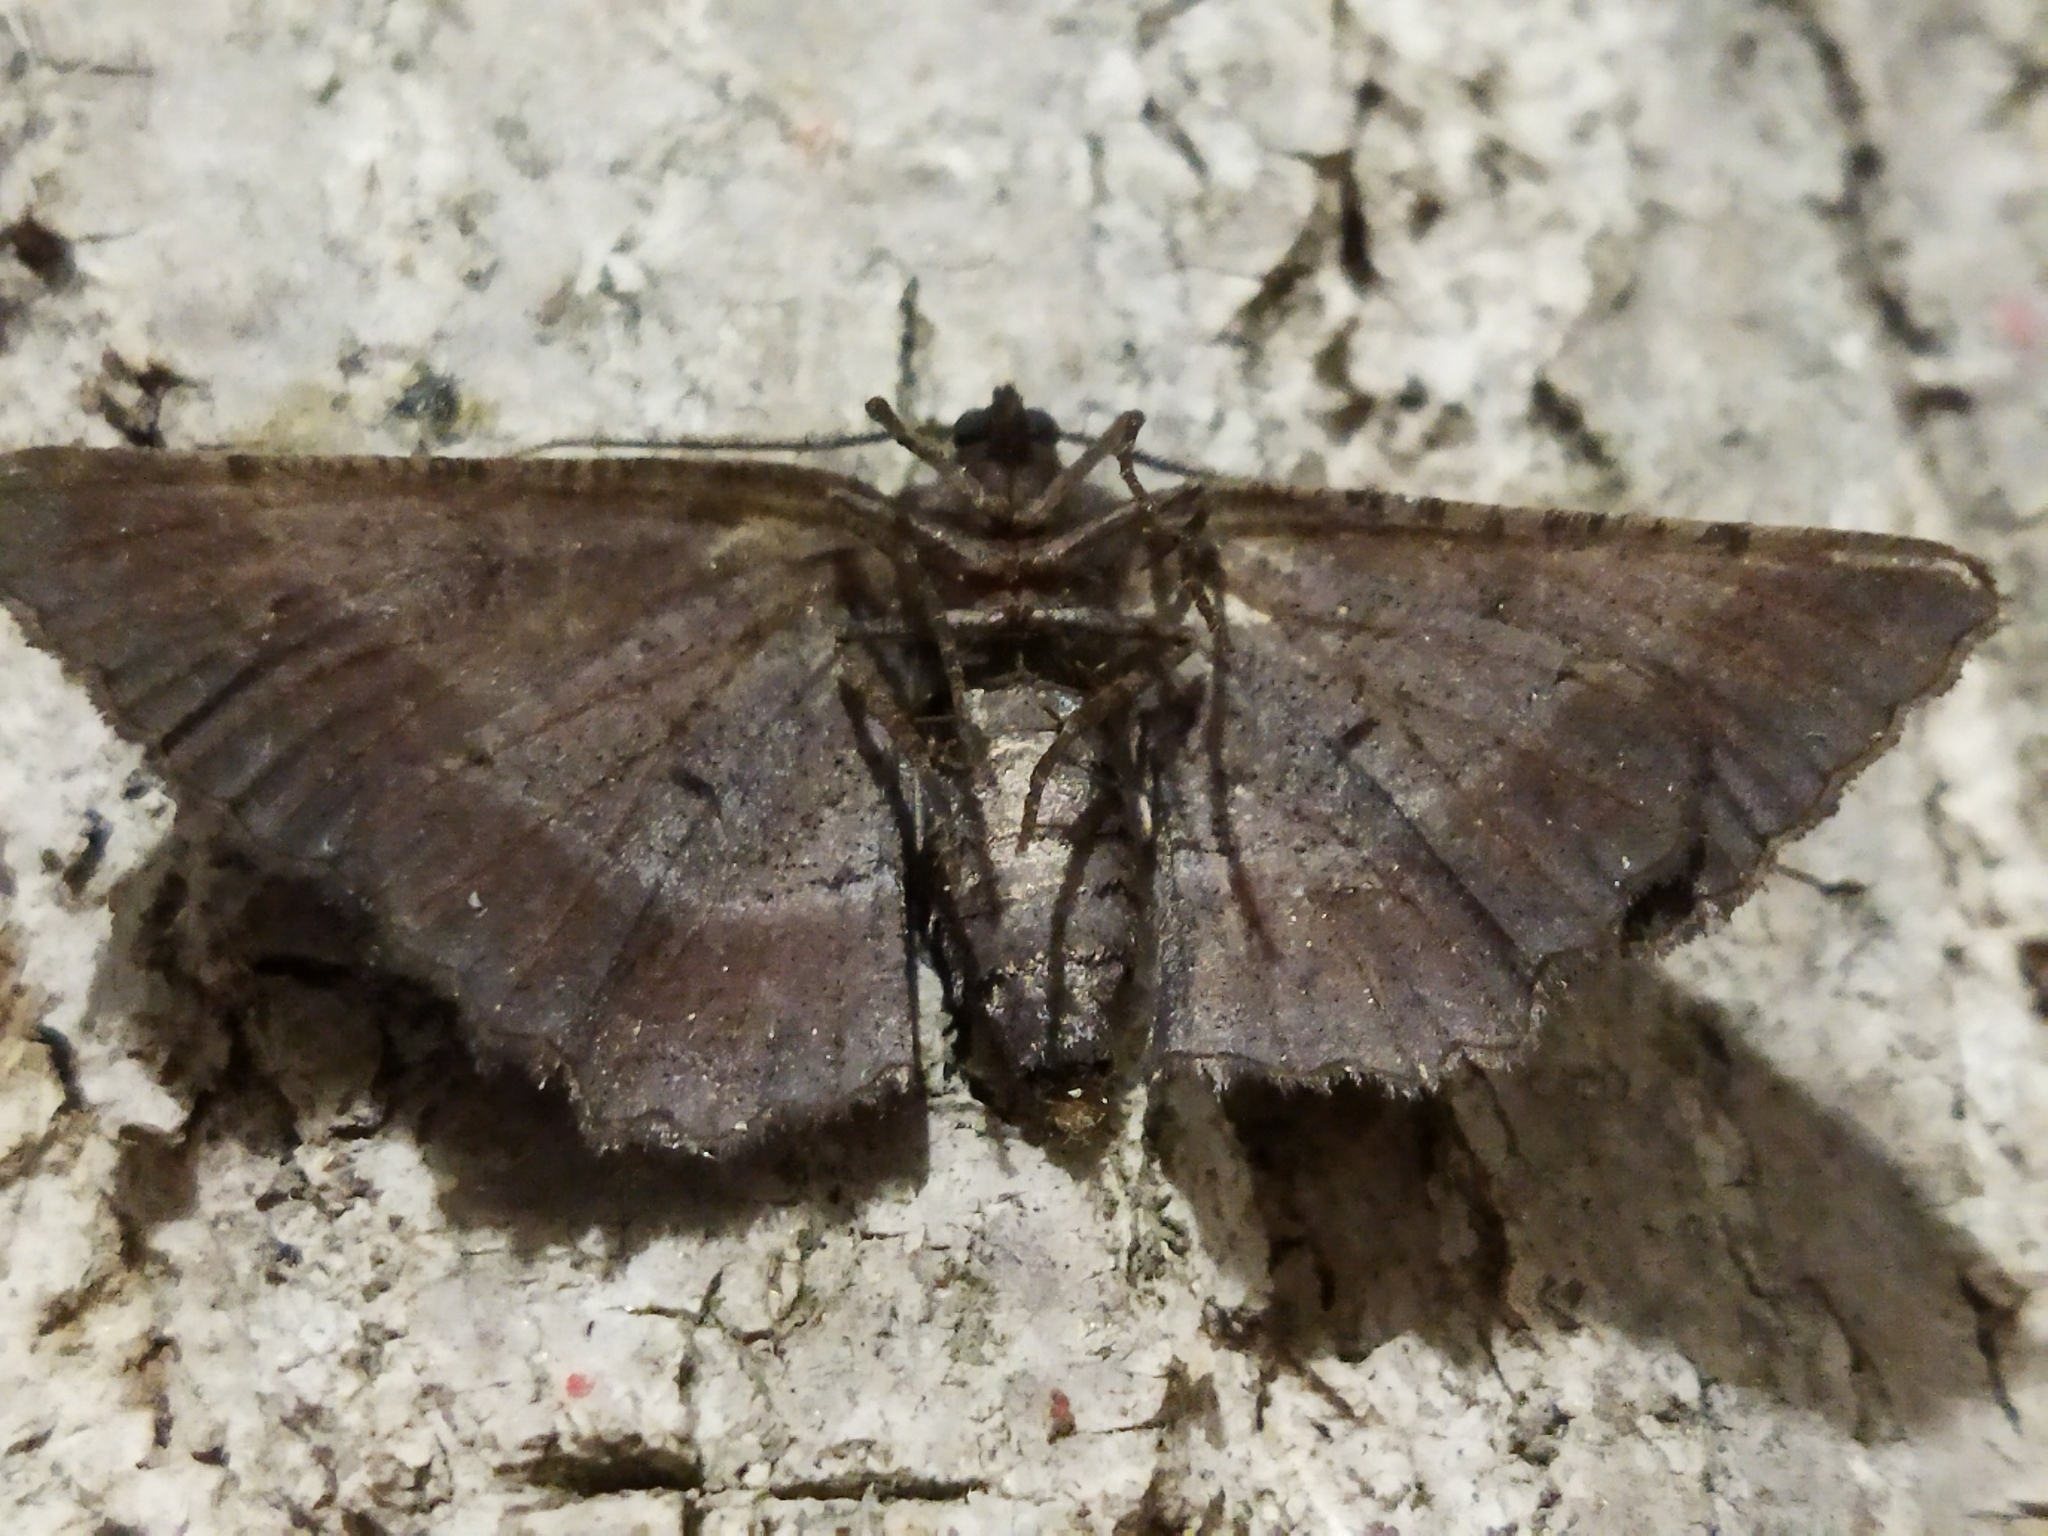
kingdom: Animalia
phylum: Arthropoda
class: Insecta
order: Lepidoptera
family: Geometridae
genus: Nychiodes
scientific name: Nychiodes waltheri
